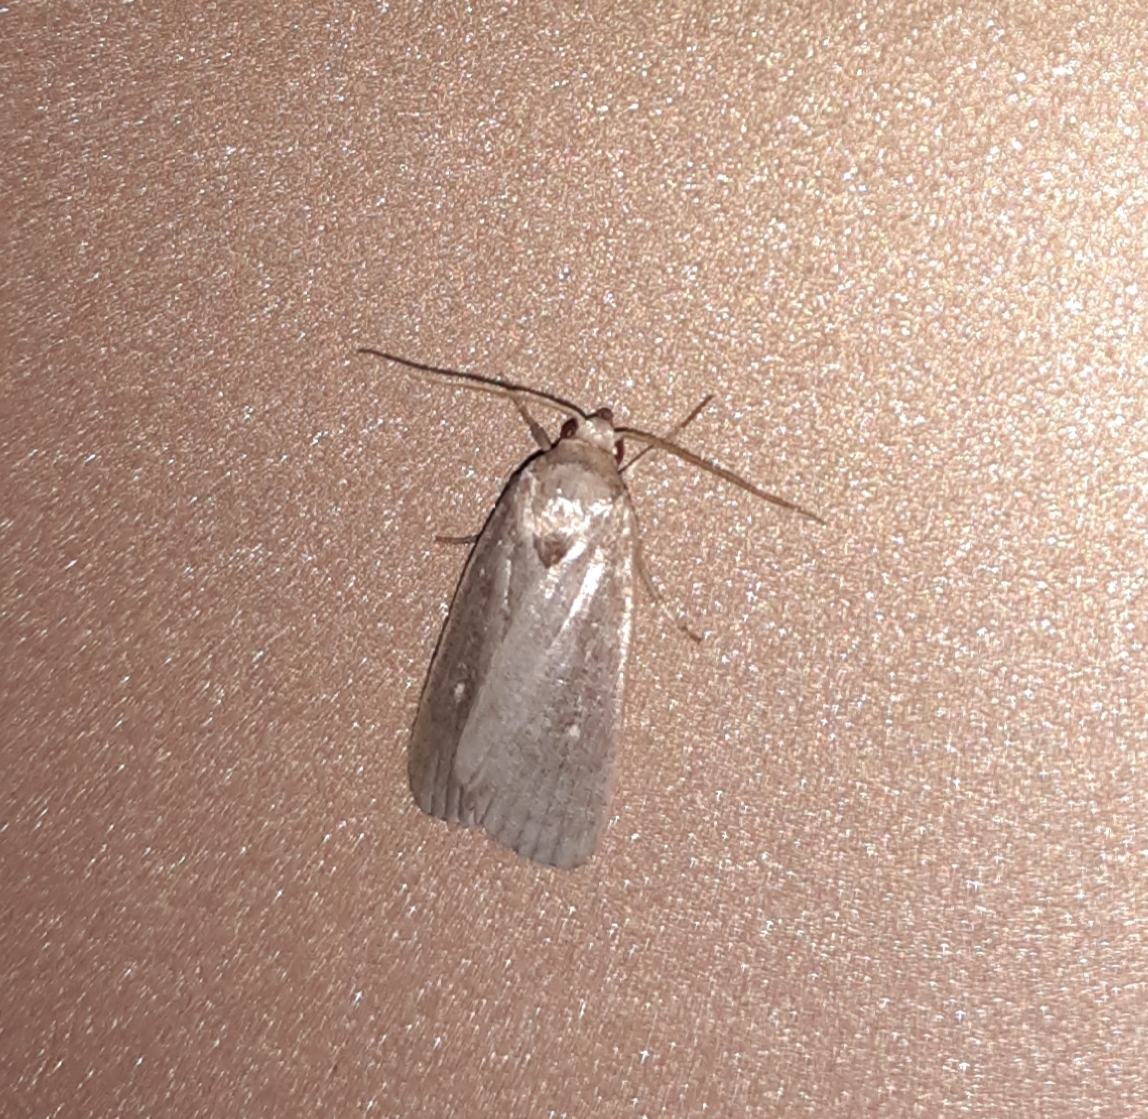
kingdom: Animalia
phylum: Arthropoda
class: Insecta
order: Lepidoptera
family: Noctuidae
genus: Proxenus
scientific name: Proxenus miranda
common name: Miranda moth
